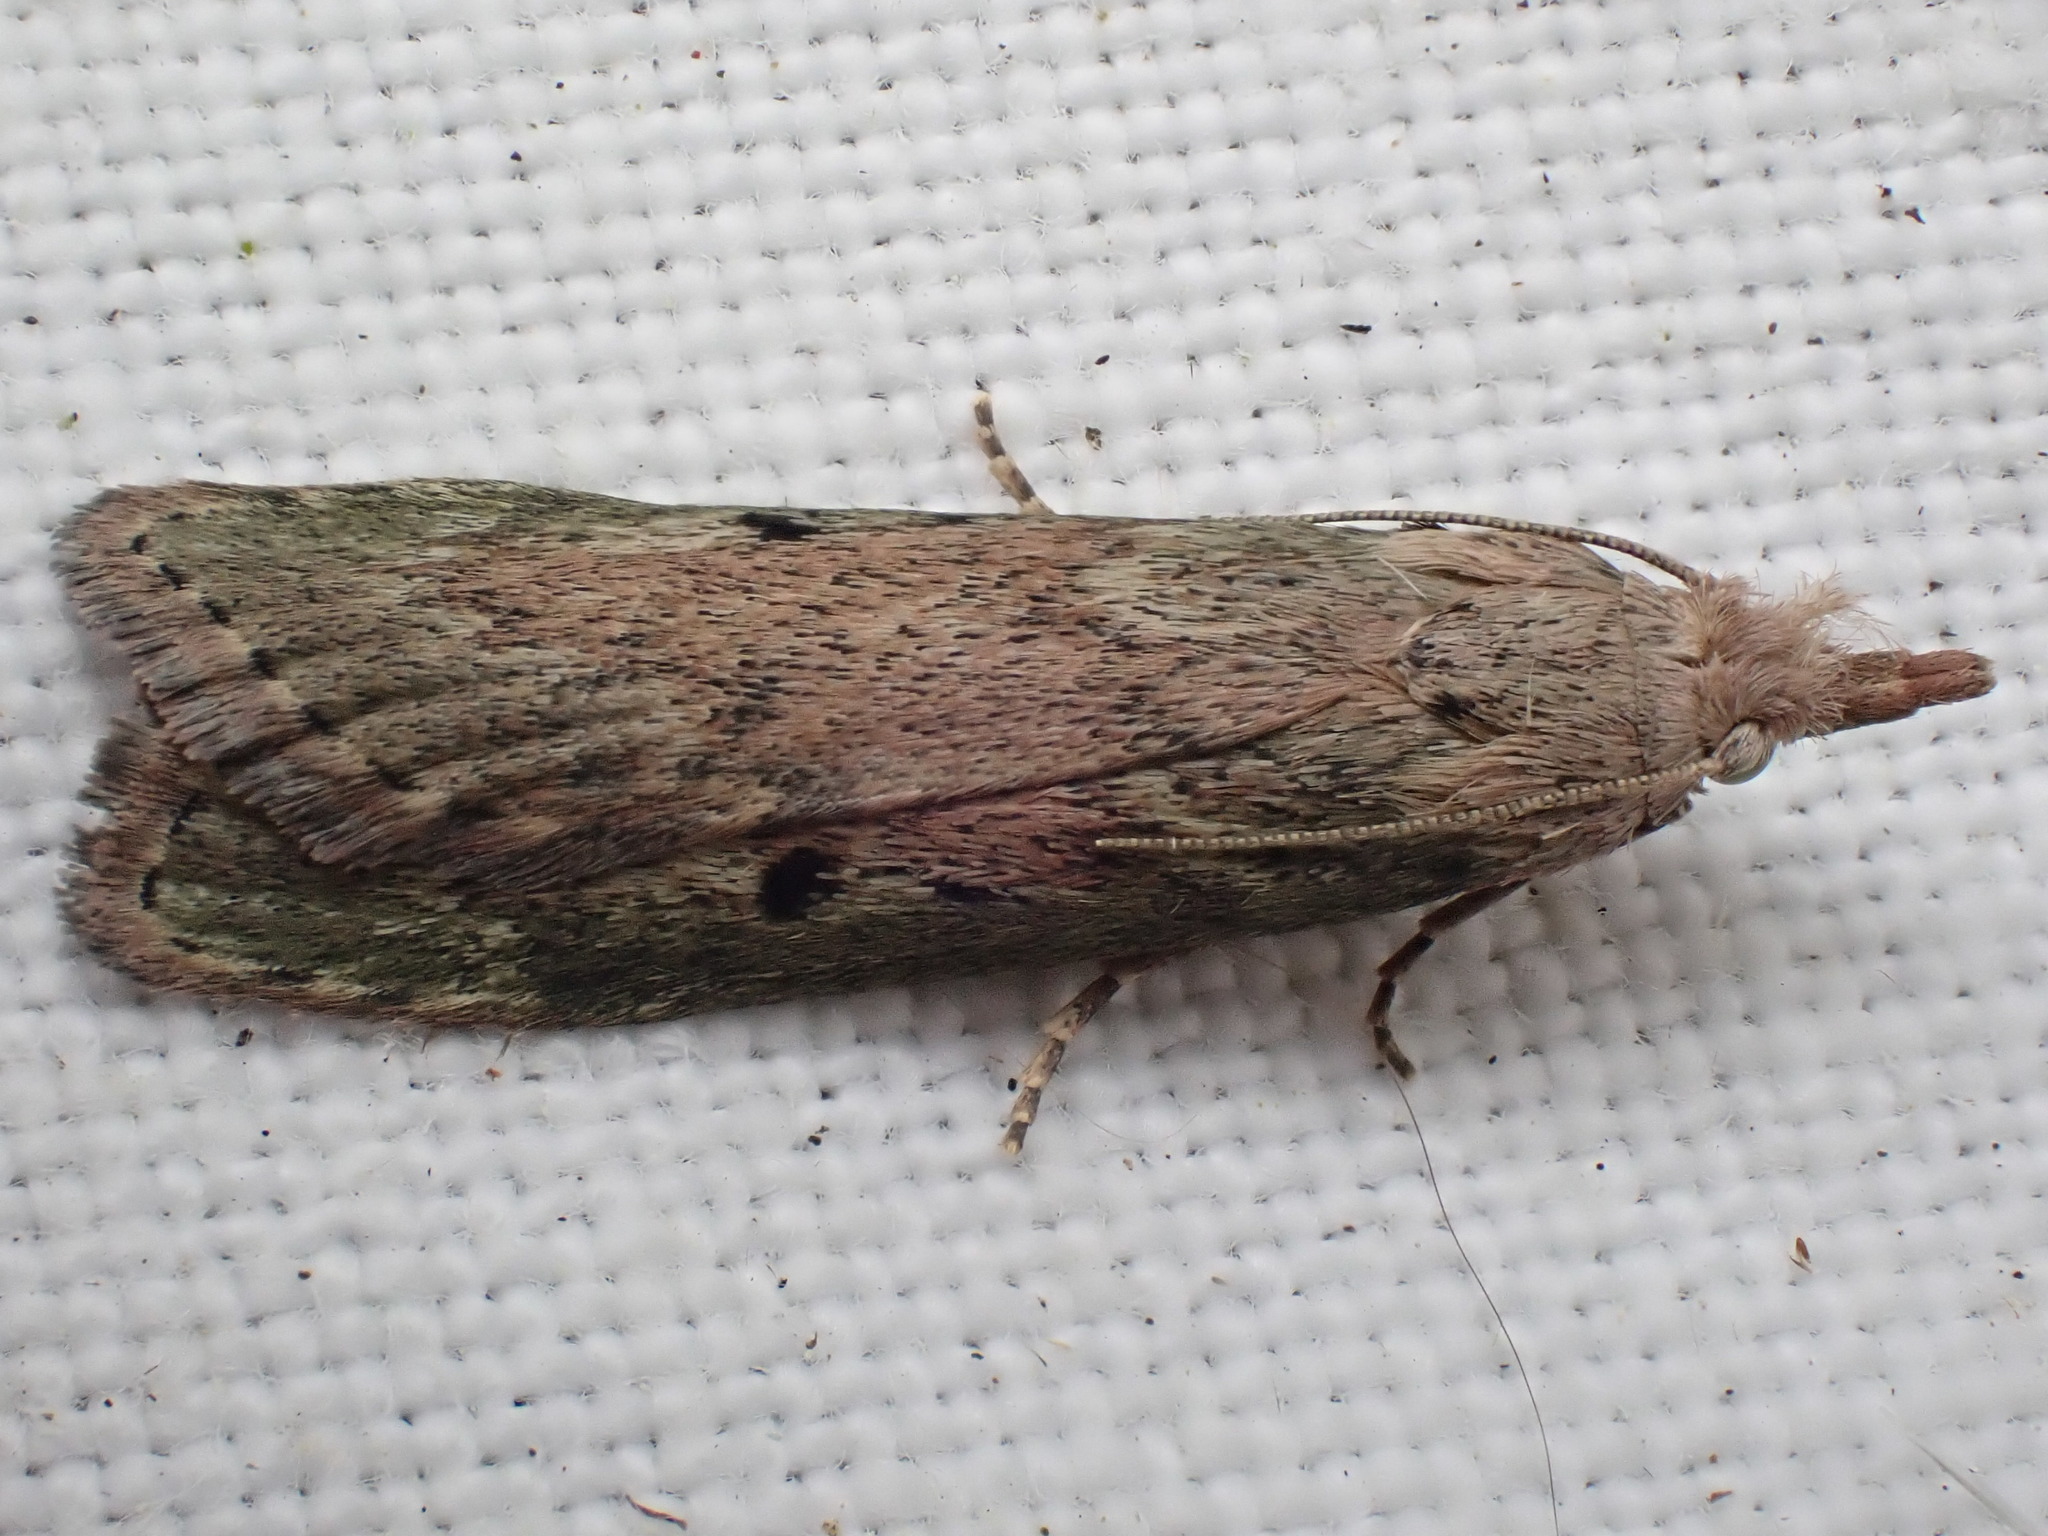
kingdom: Animalia
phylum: Arthropoda
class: Insecta
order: Lepidoptera
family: Pyralidae
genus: Aphomia
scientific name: Aphomia sociella
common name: Bee moth
